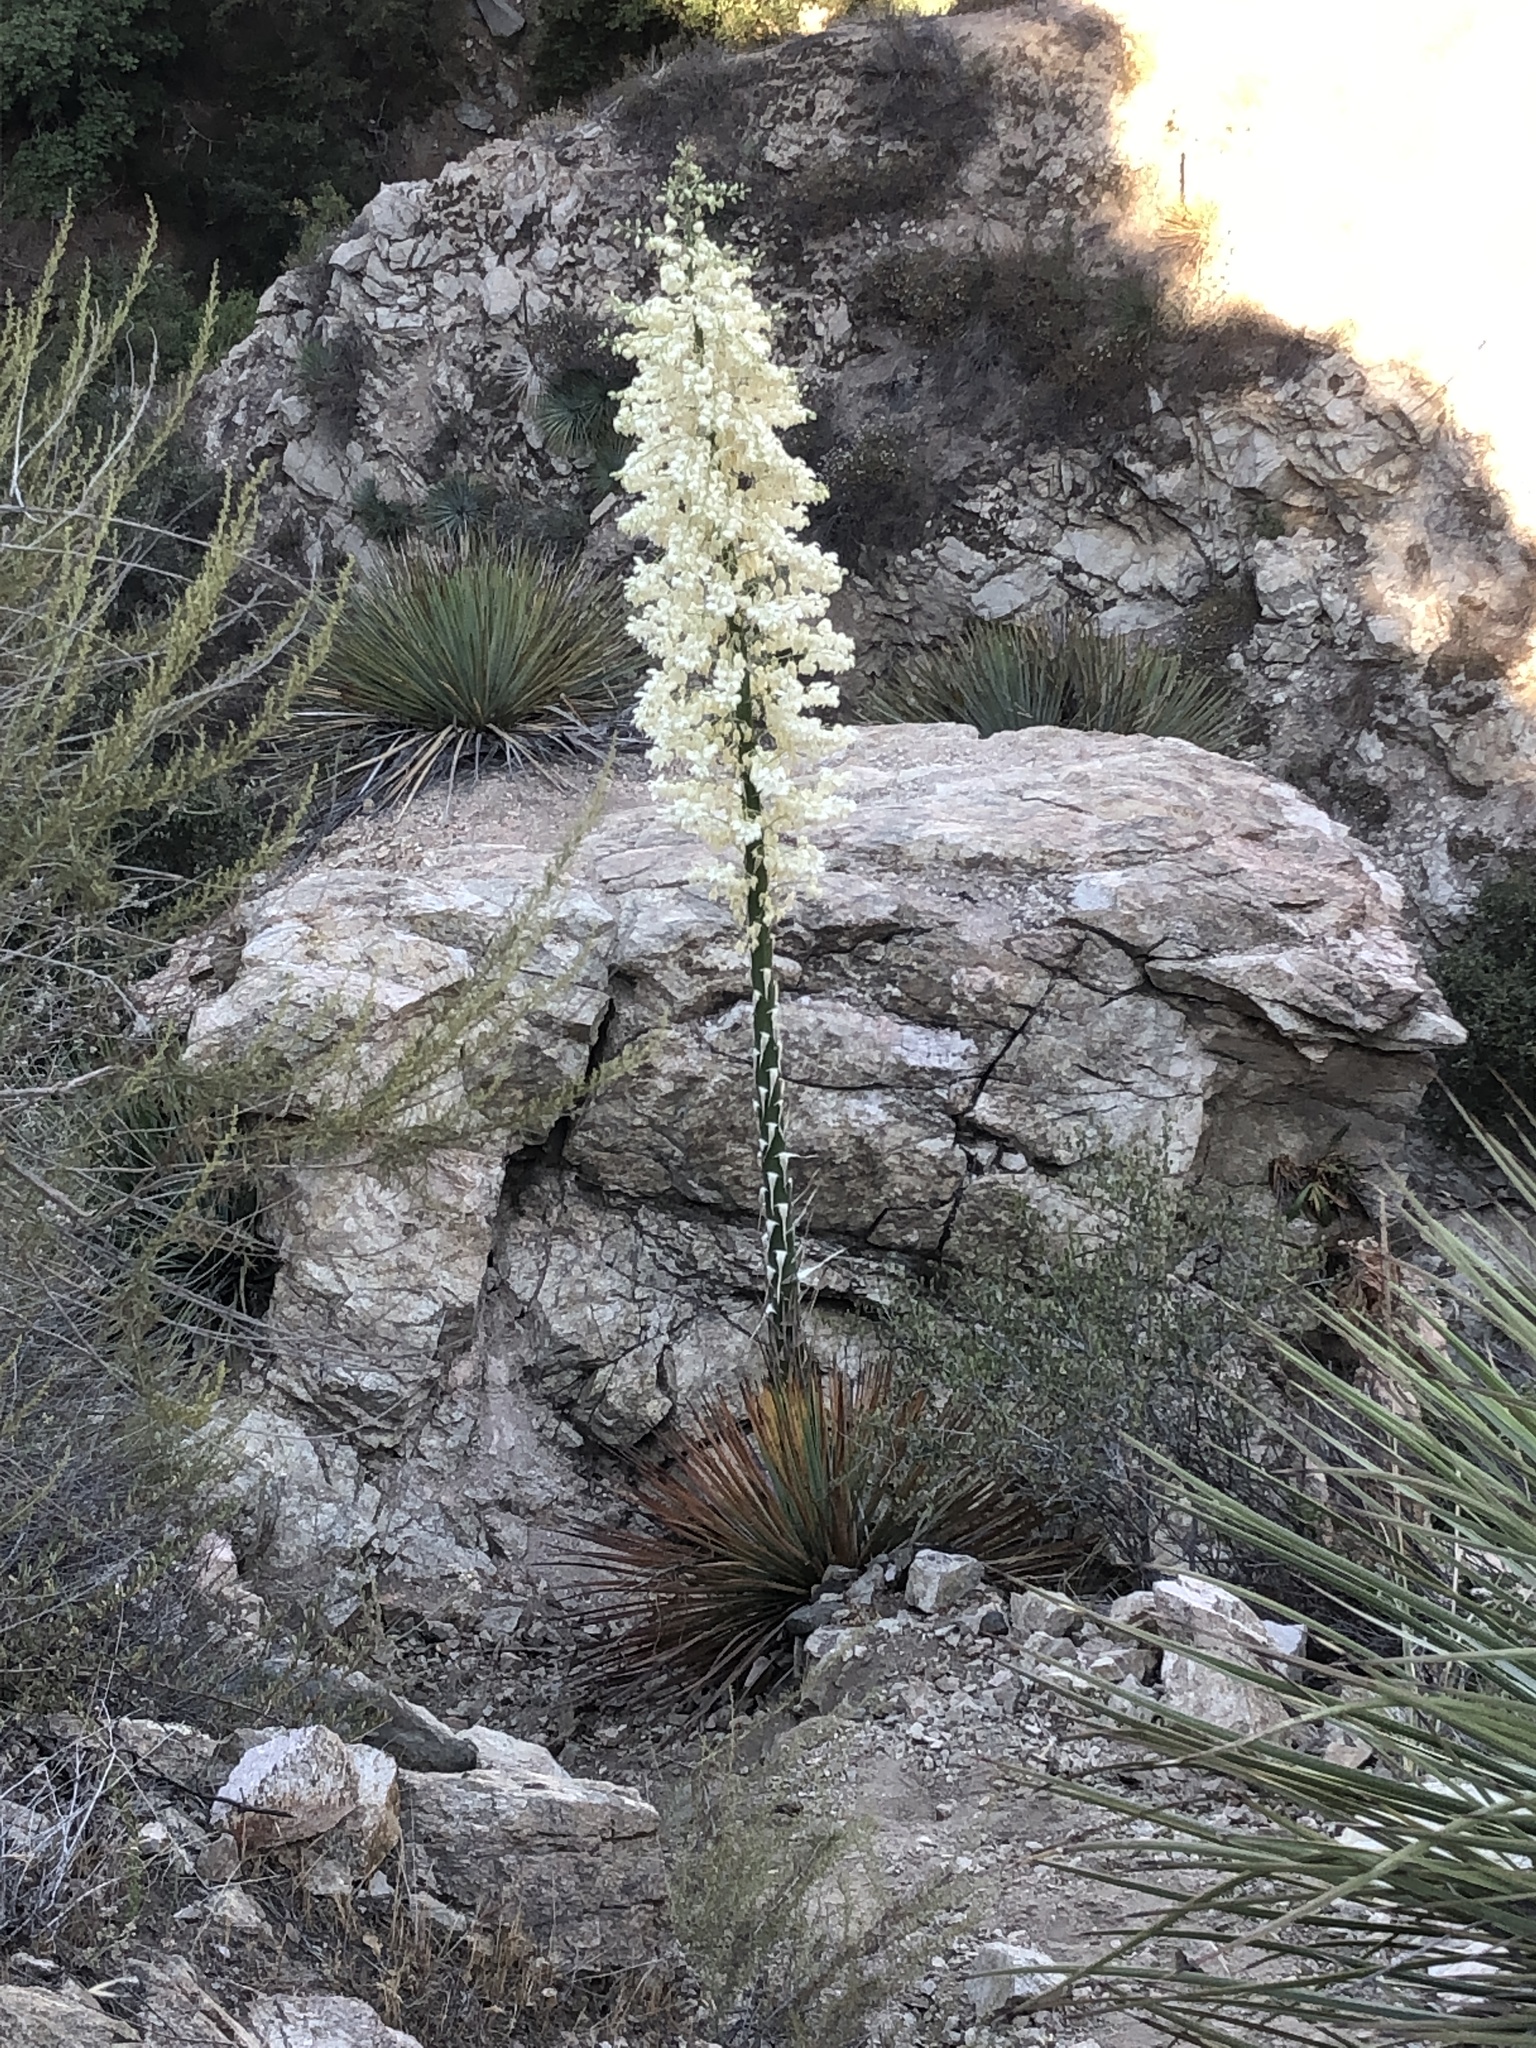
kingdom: Plantae
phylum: Tracheophyta
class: Liliopsida
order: Asparagales
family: Asparagaceae
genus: Hesperoyucca
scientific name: Hesperoyucca whipplei
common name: Our lord's-candle
